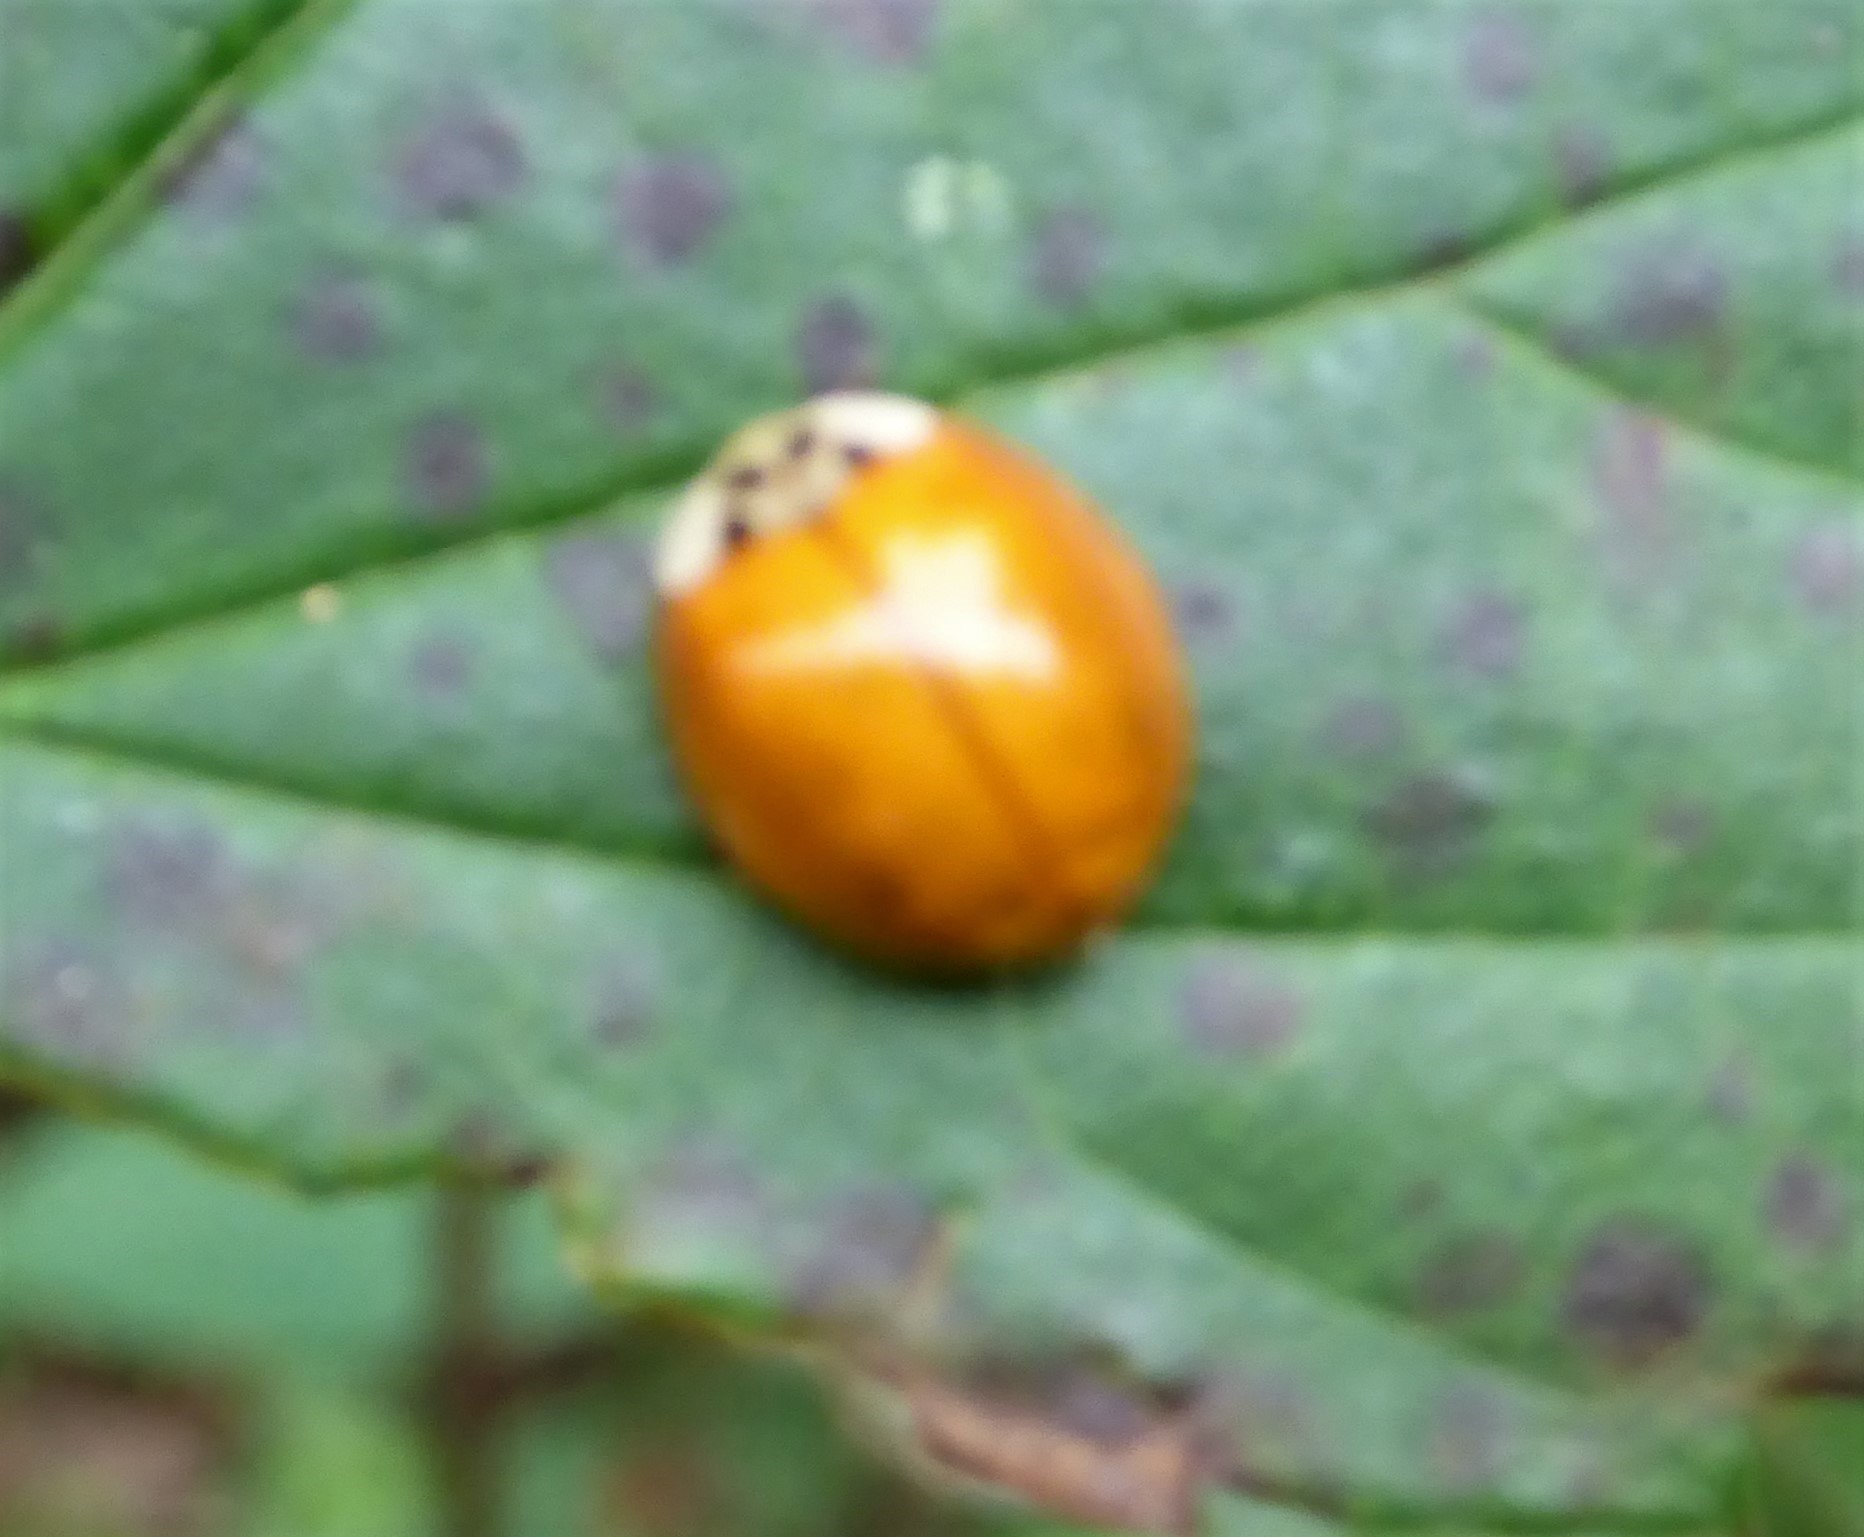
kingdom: Animalia
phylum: Arthropoda
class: Insecta
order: Coleoptera
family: Coccinellidae
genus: Harmonia
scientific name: Harmonia axyridis
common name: Harlequin ladybird
